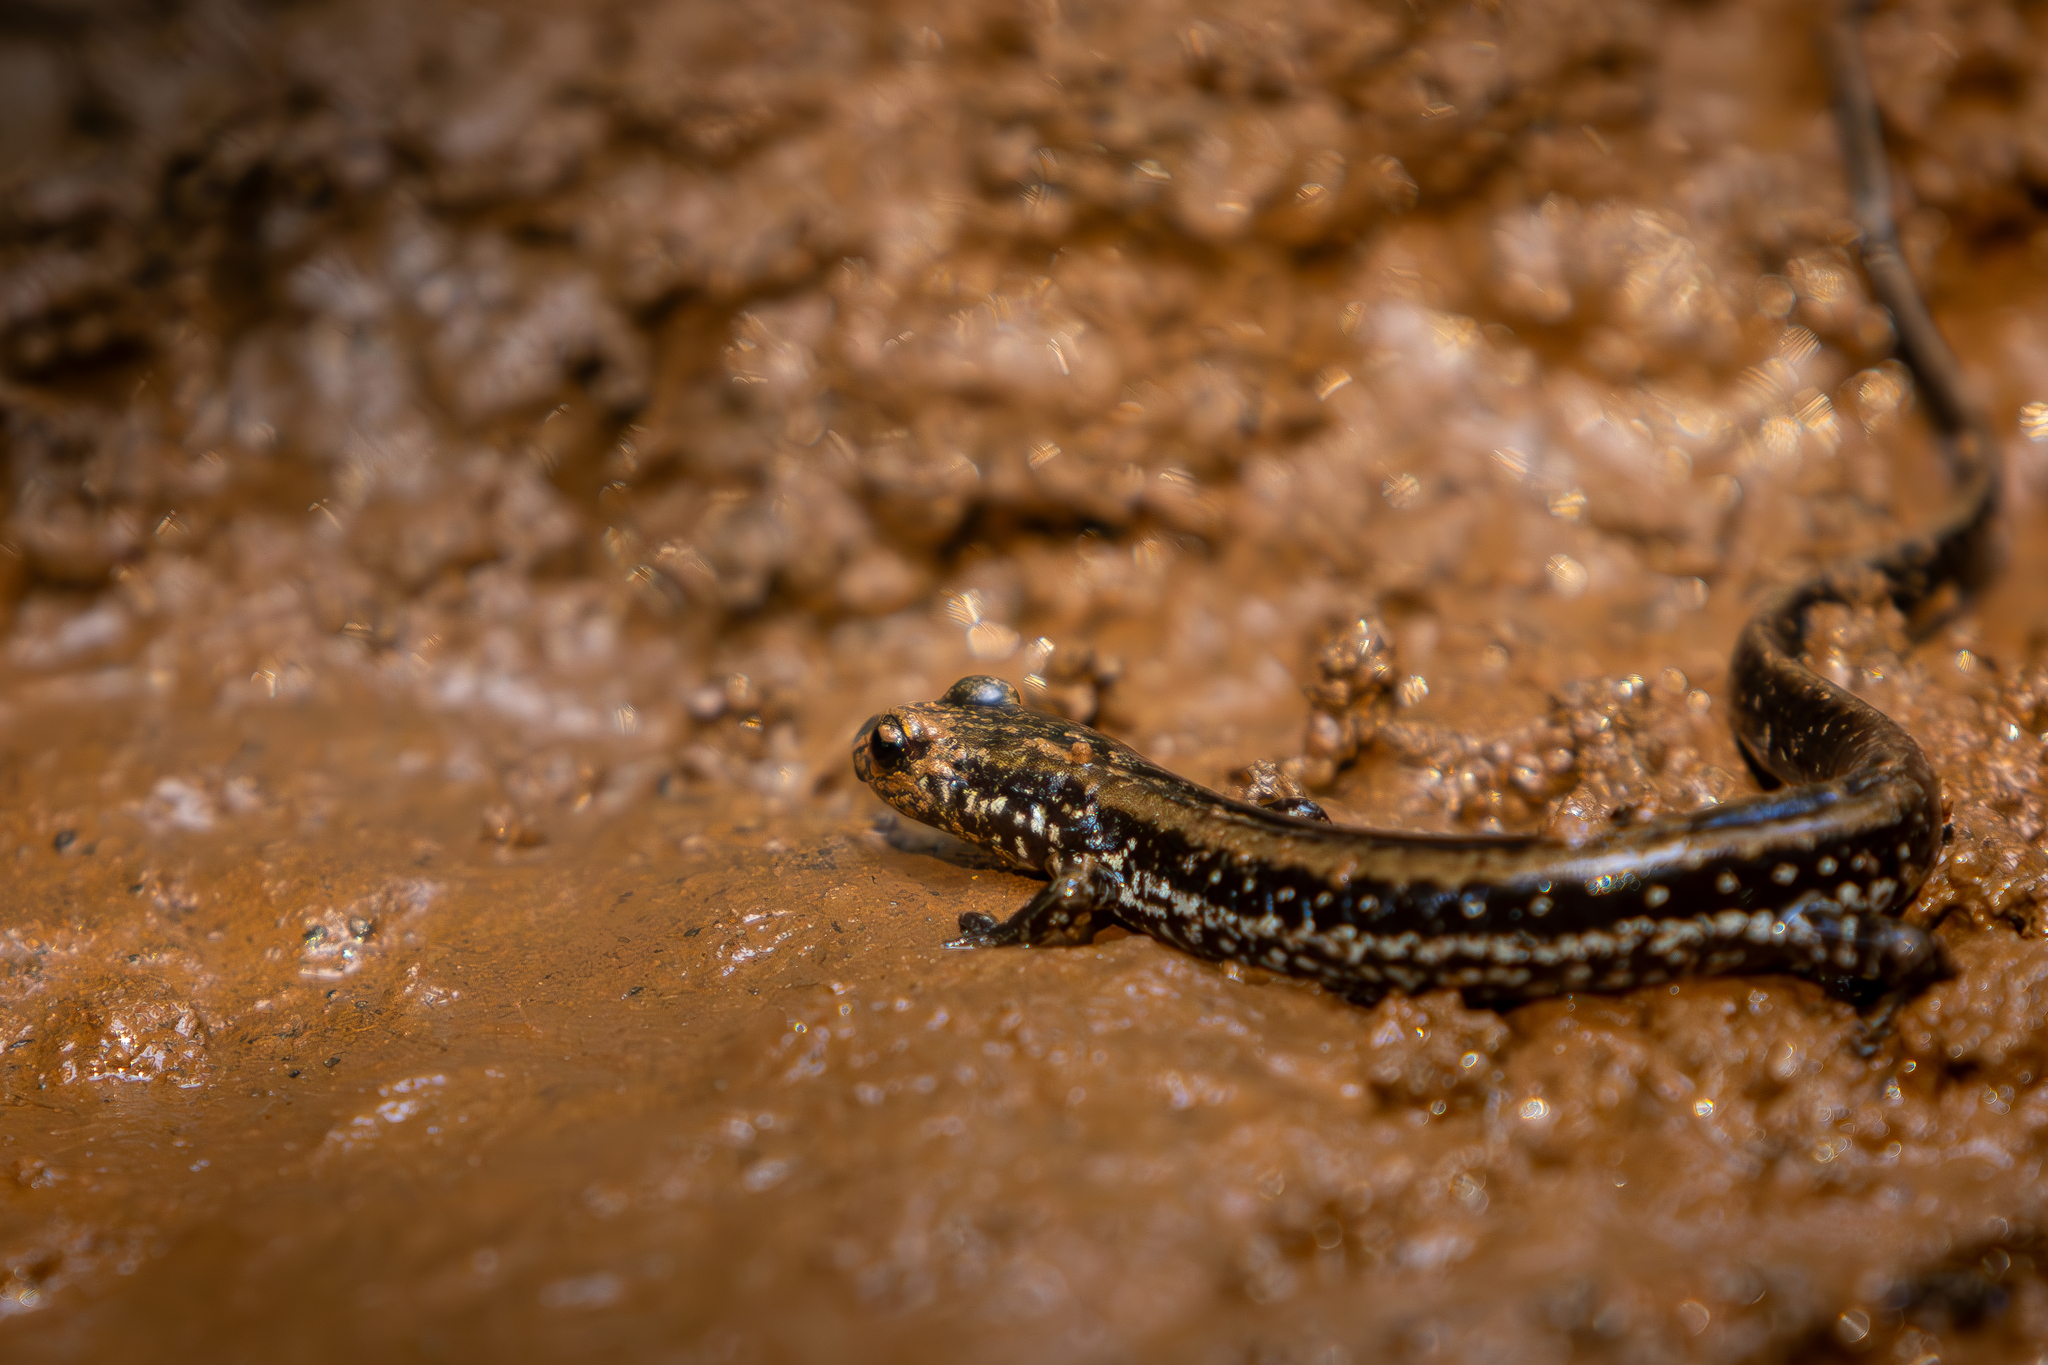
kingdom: Animalia
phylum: Chordata
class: Amphibia
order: Caudata
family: Plethodontidae
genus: Eurycea
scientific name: Eurycea guttolineata
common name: Three-lined salamander
